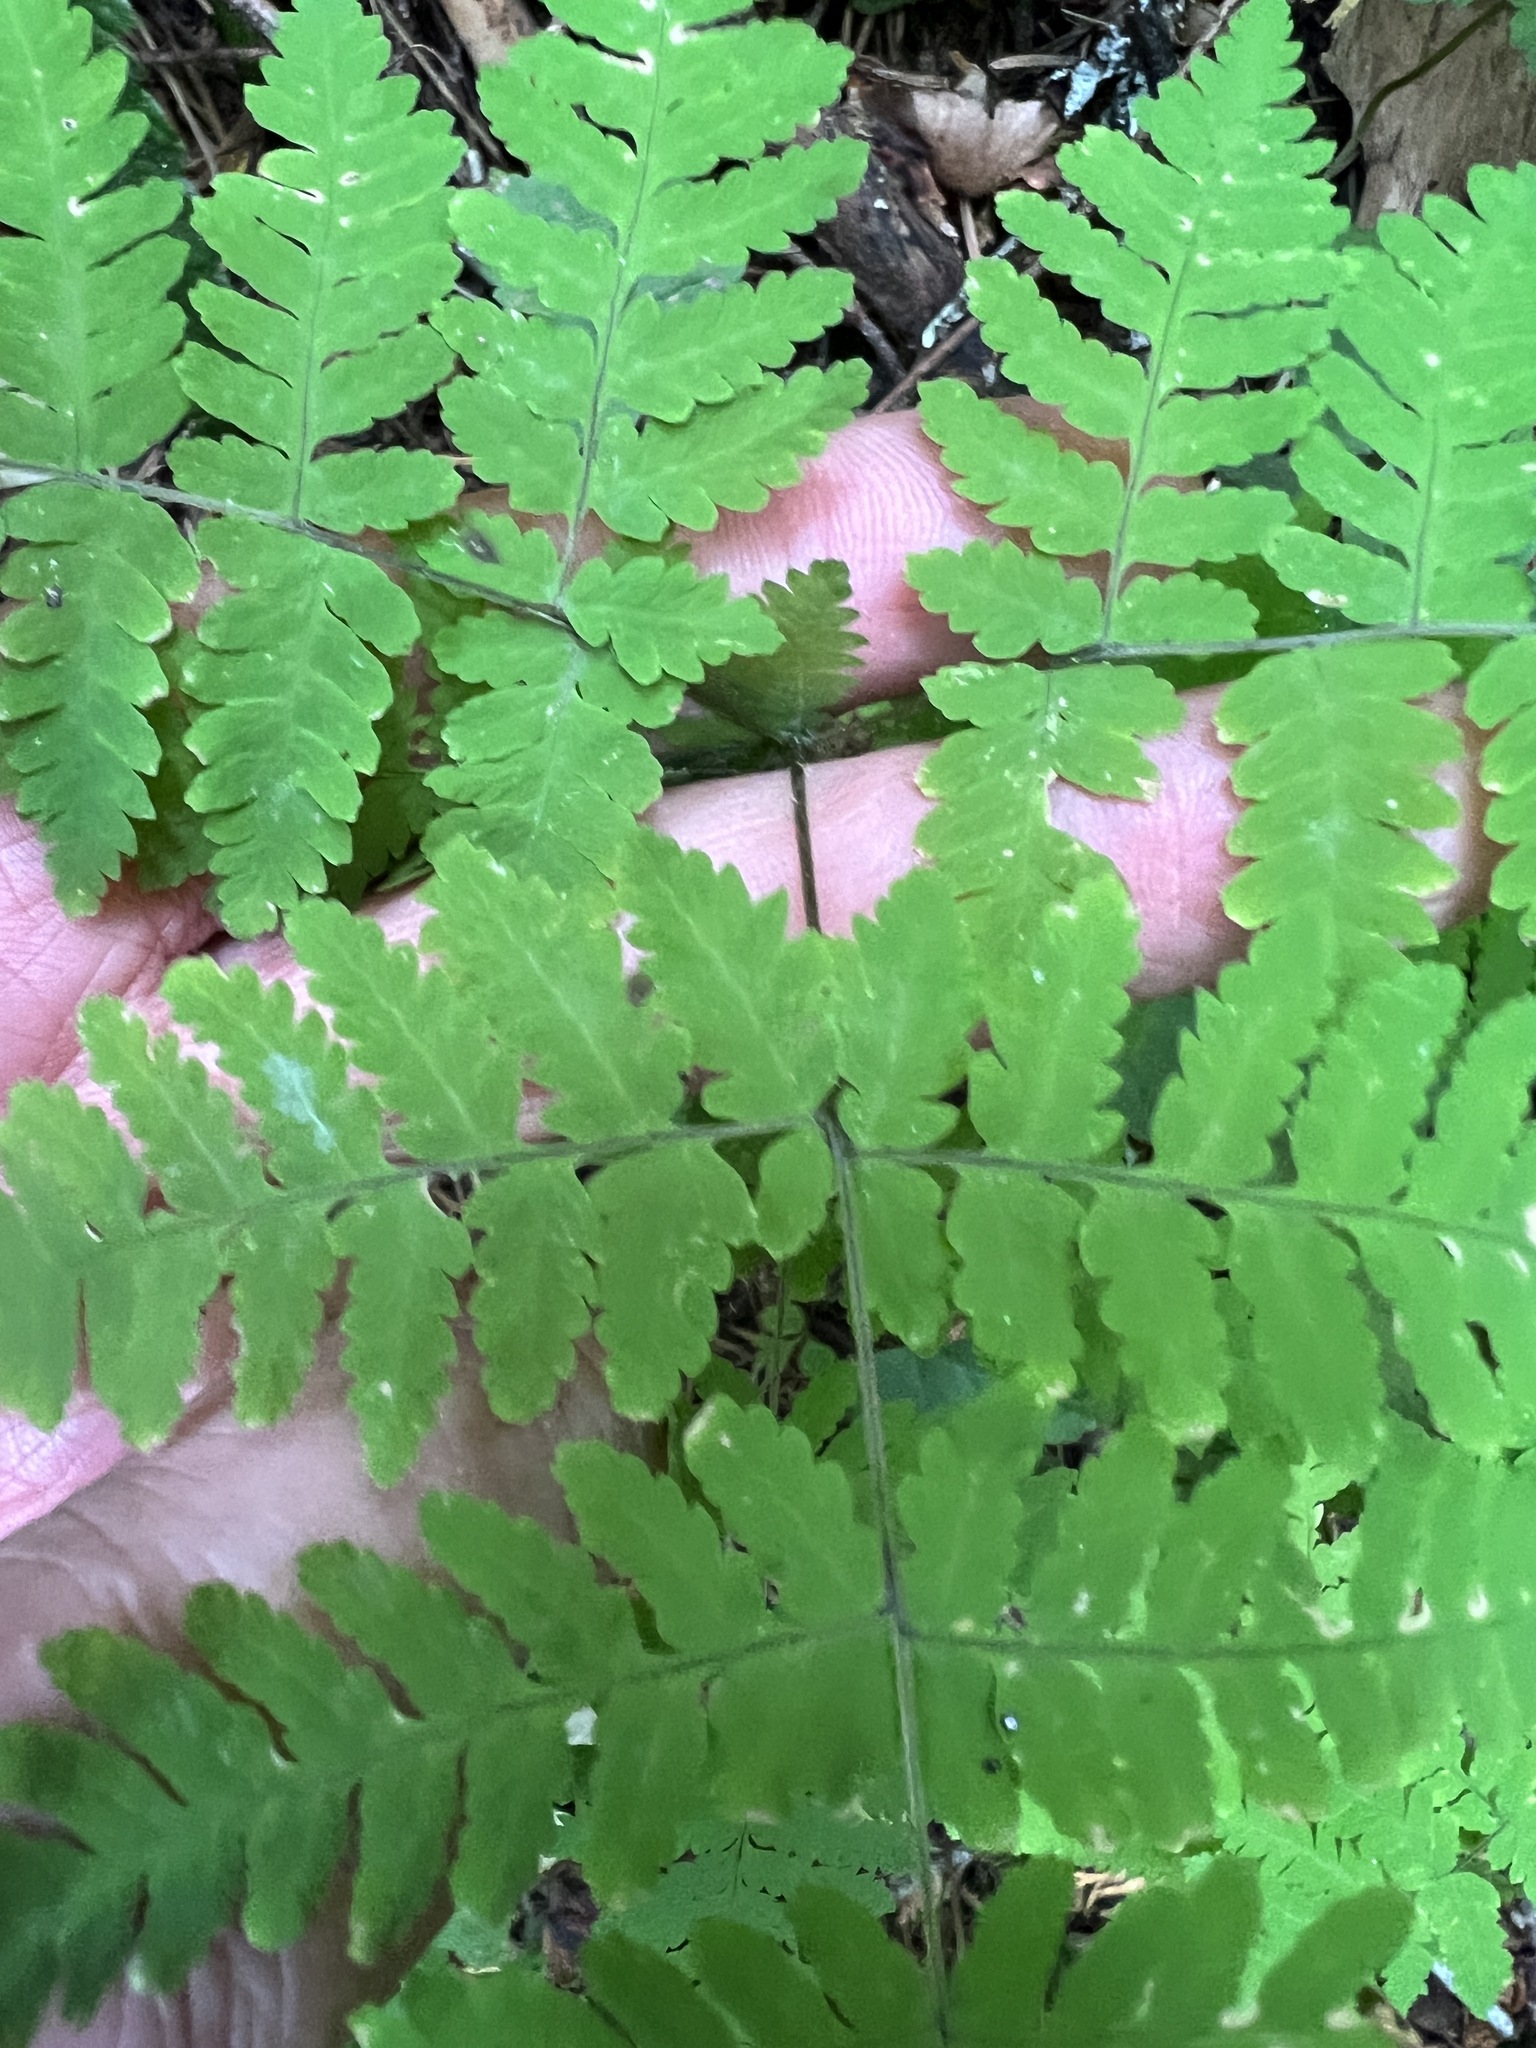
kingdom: Plantae
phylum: Tracheophyta
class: Polypodiopsida
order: Polypodiales
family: Cystopteridaceae
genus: Gymnocarpium
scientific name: Gymnocarpium disjunctum
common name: Western oak fern
